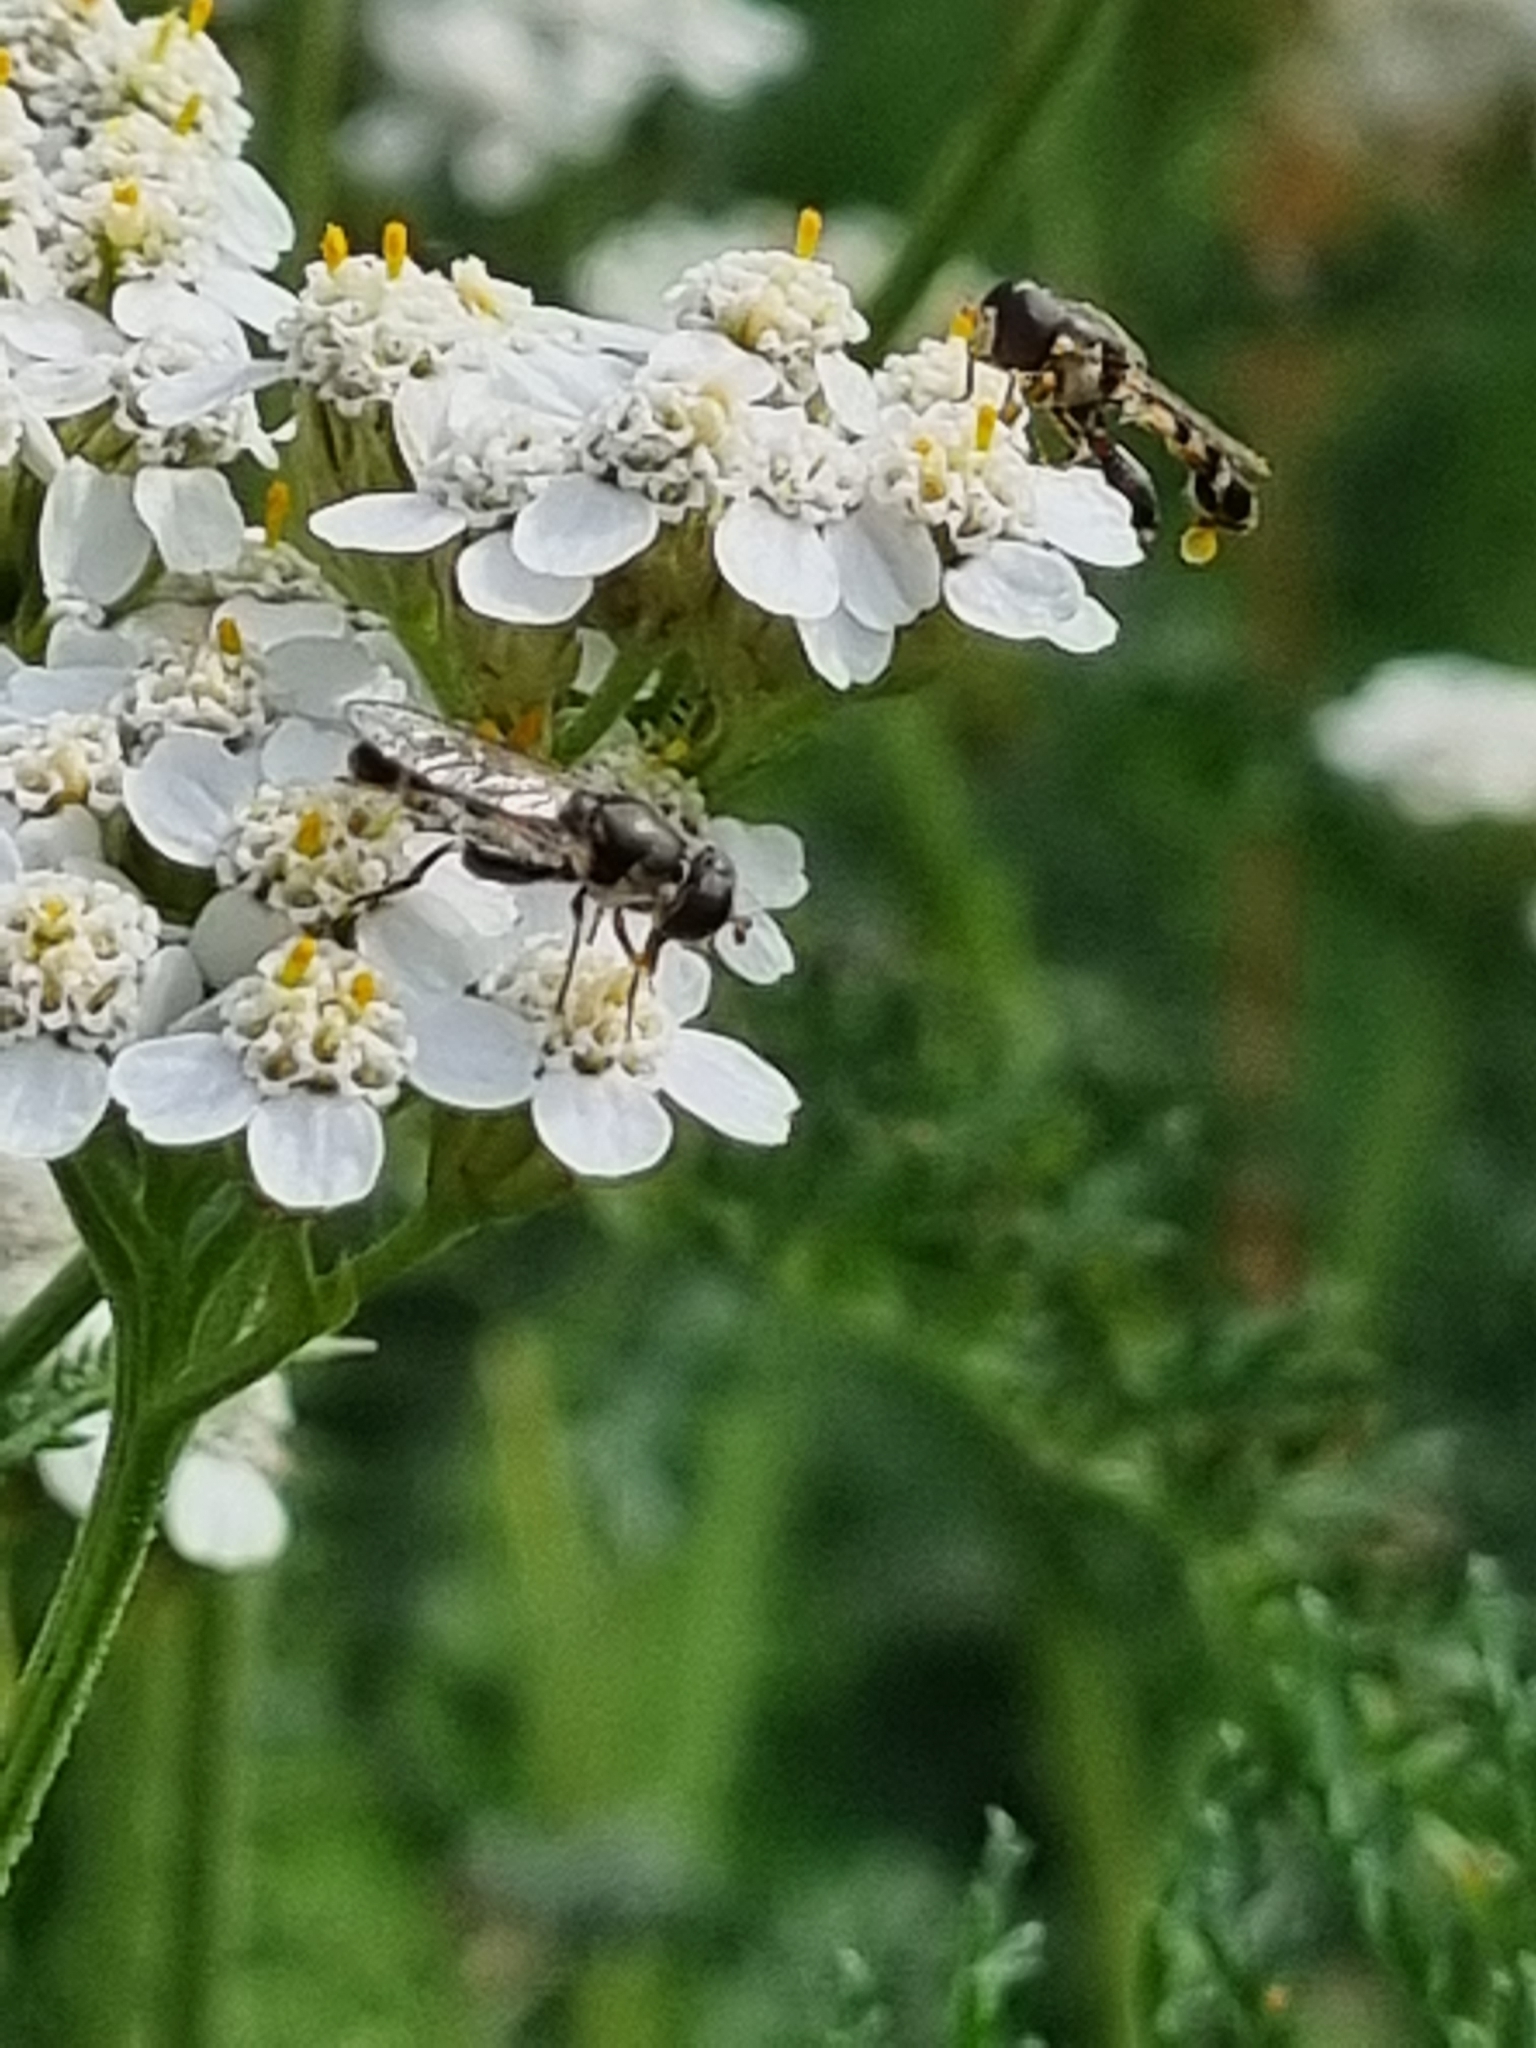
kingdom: Animalia
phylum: Arthropoda
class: Insecta
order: Diptera
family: Syrphidae
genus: Syritta
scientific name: Syritta pipiens
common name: Hover fly
